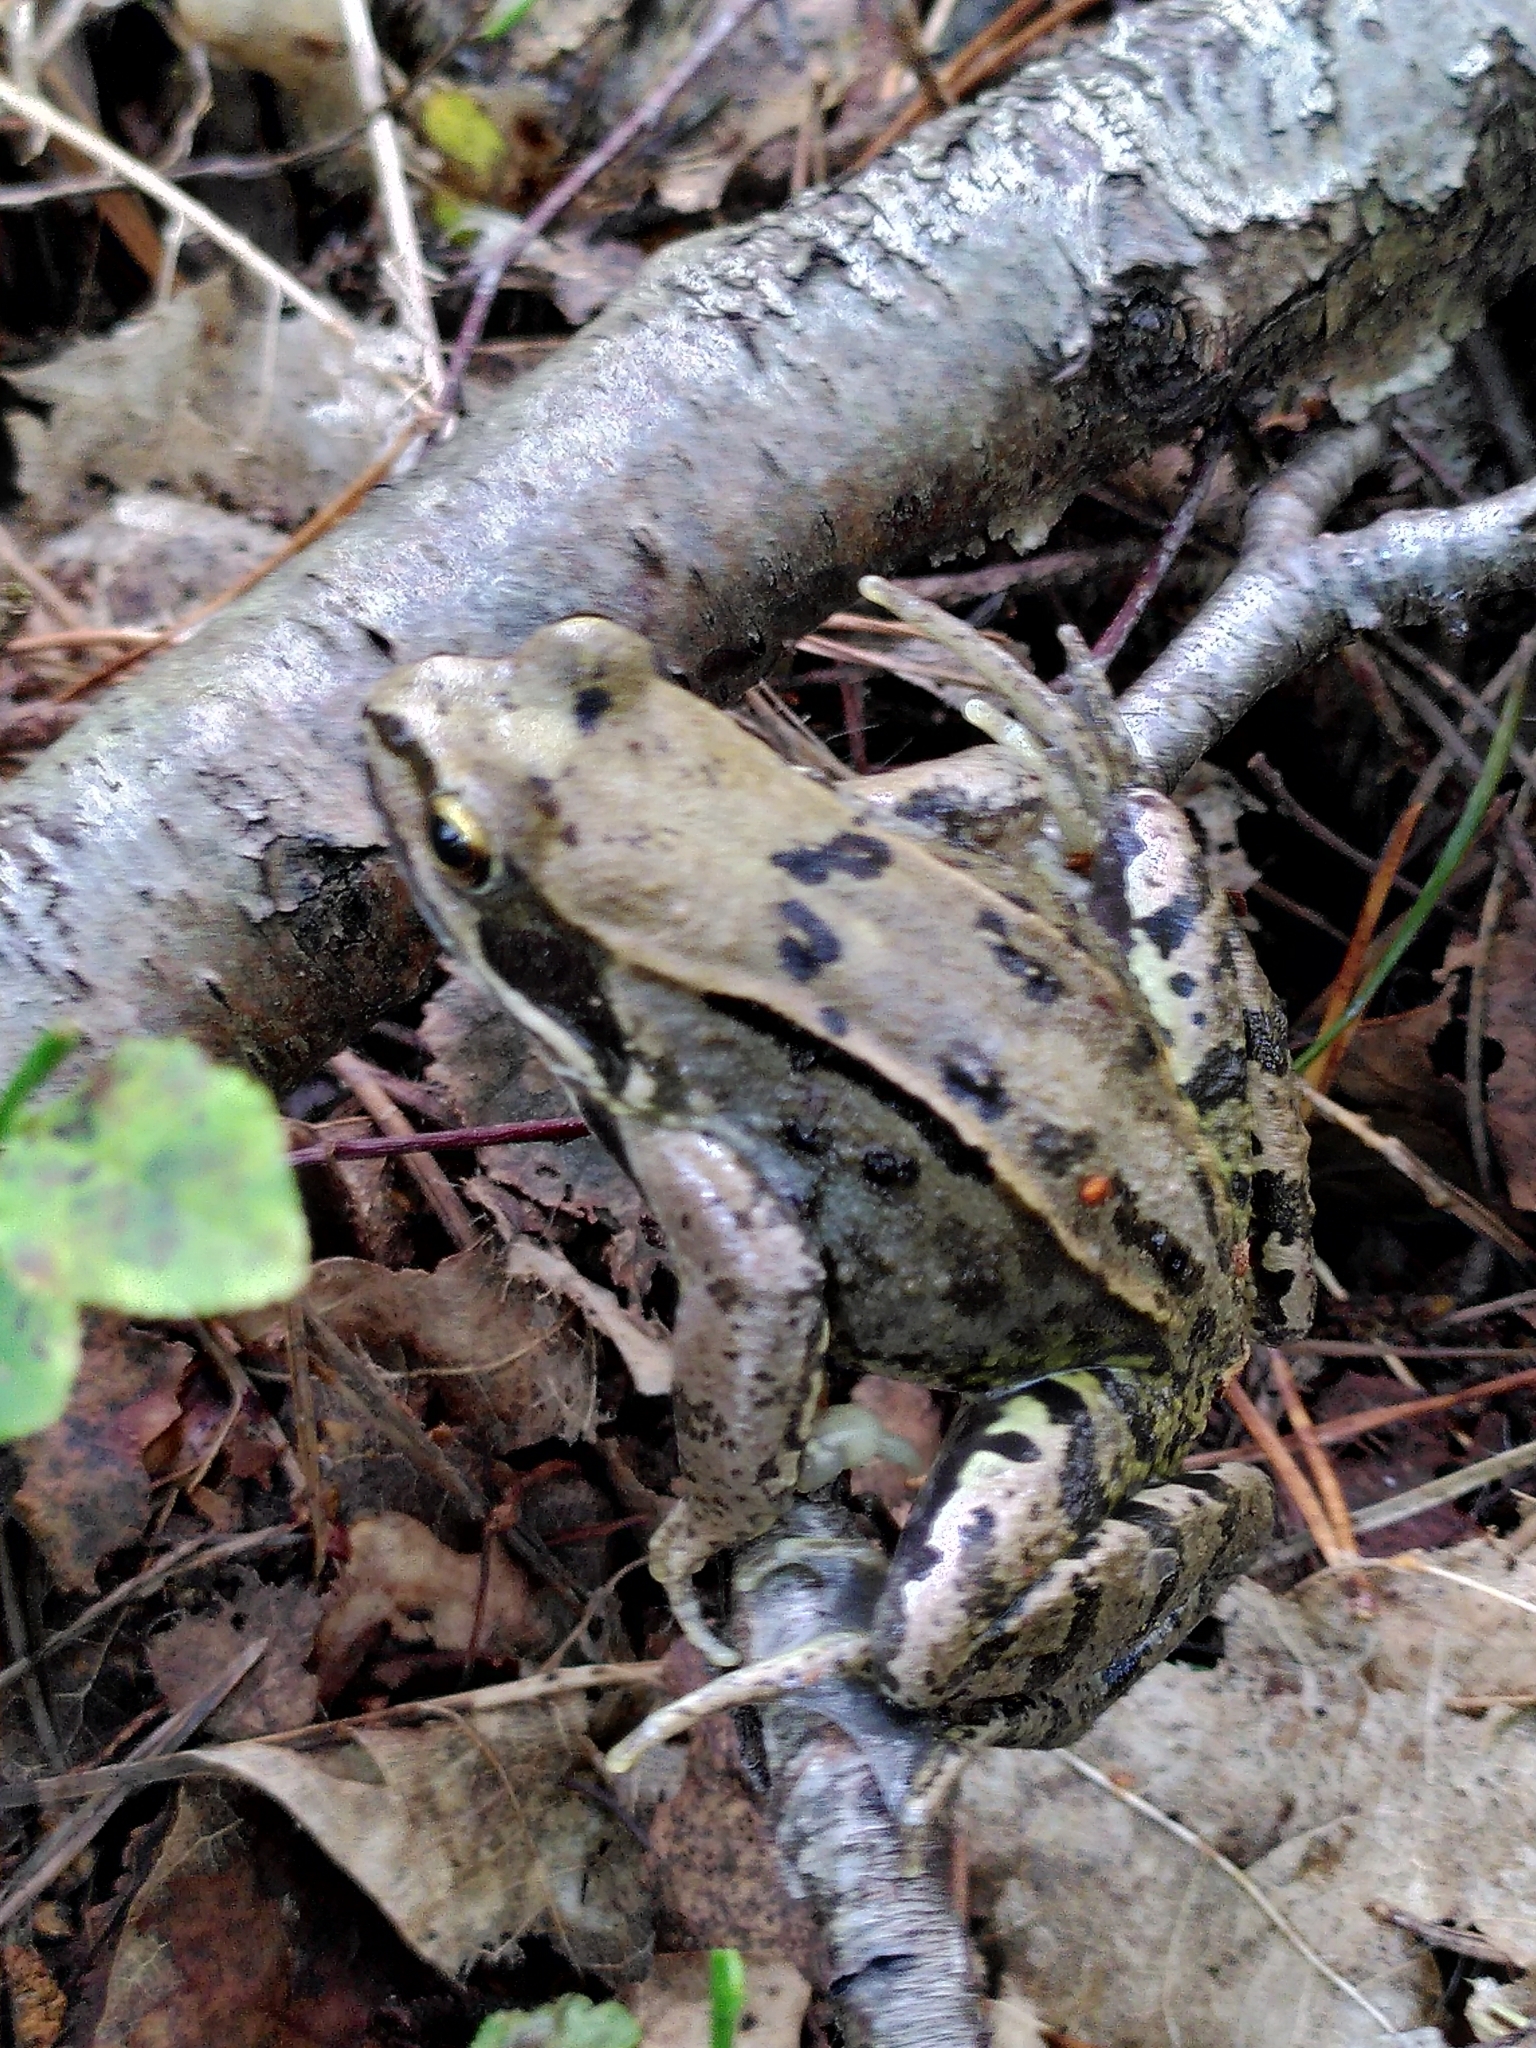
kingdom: Animalia
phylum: Chordata
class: Amphibia
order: Anura
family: Ranidae
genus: Rana
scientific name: Rana temporaria
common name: Common frog
